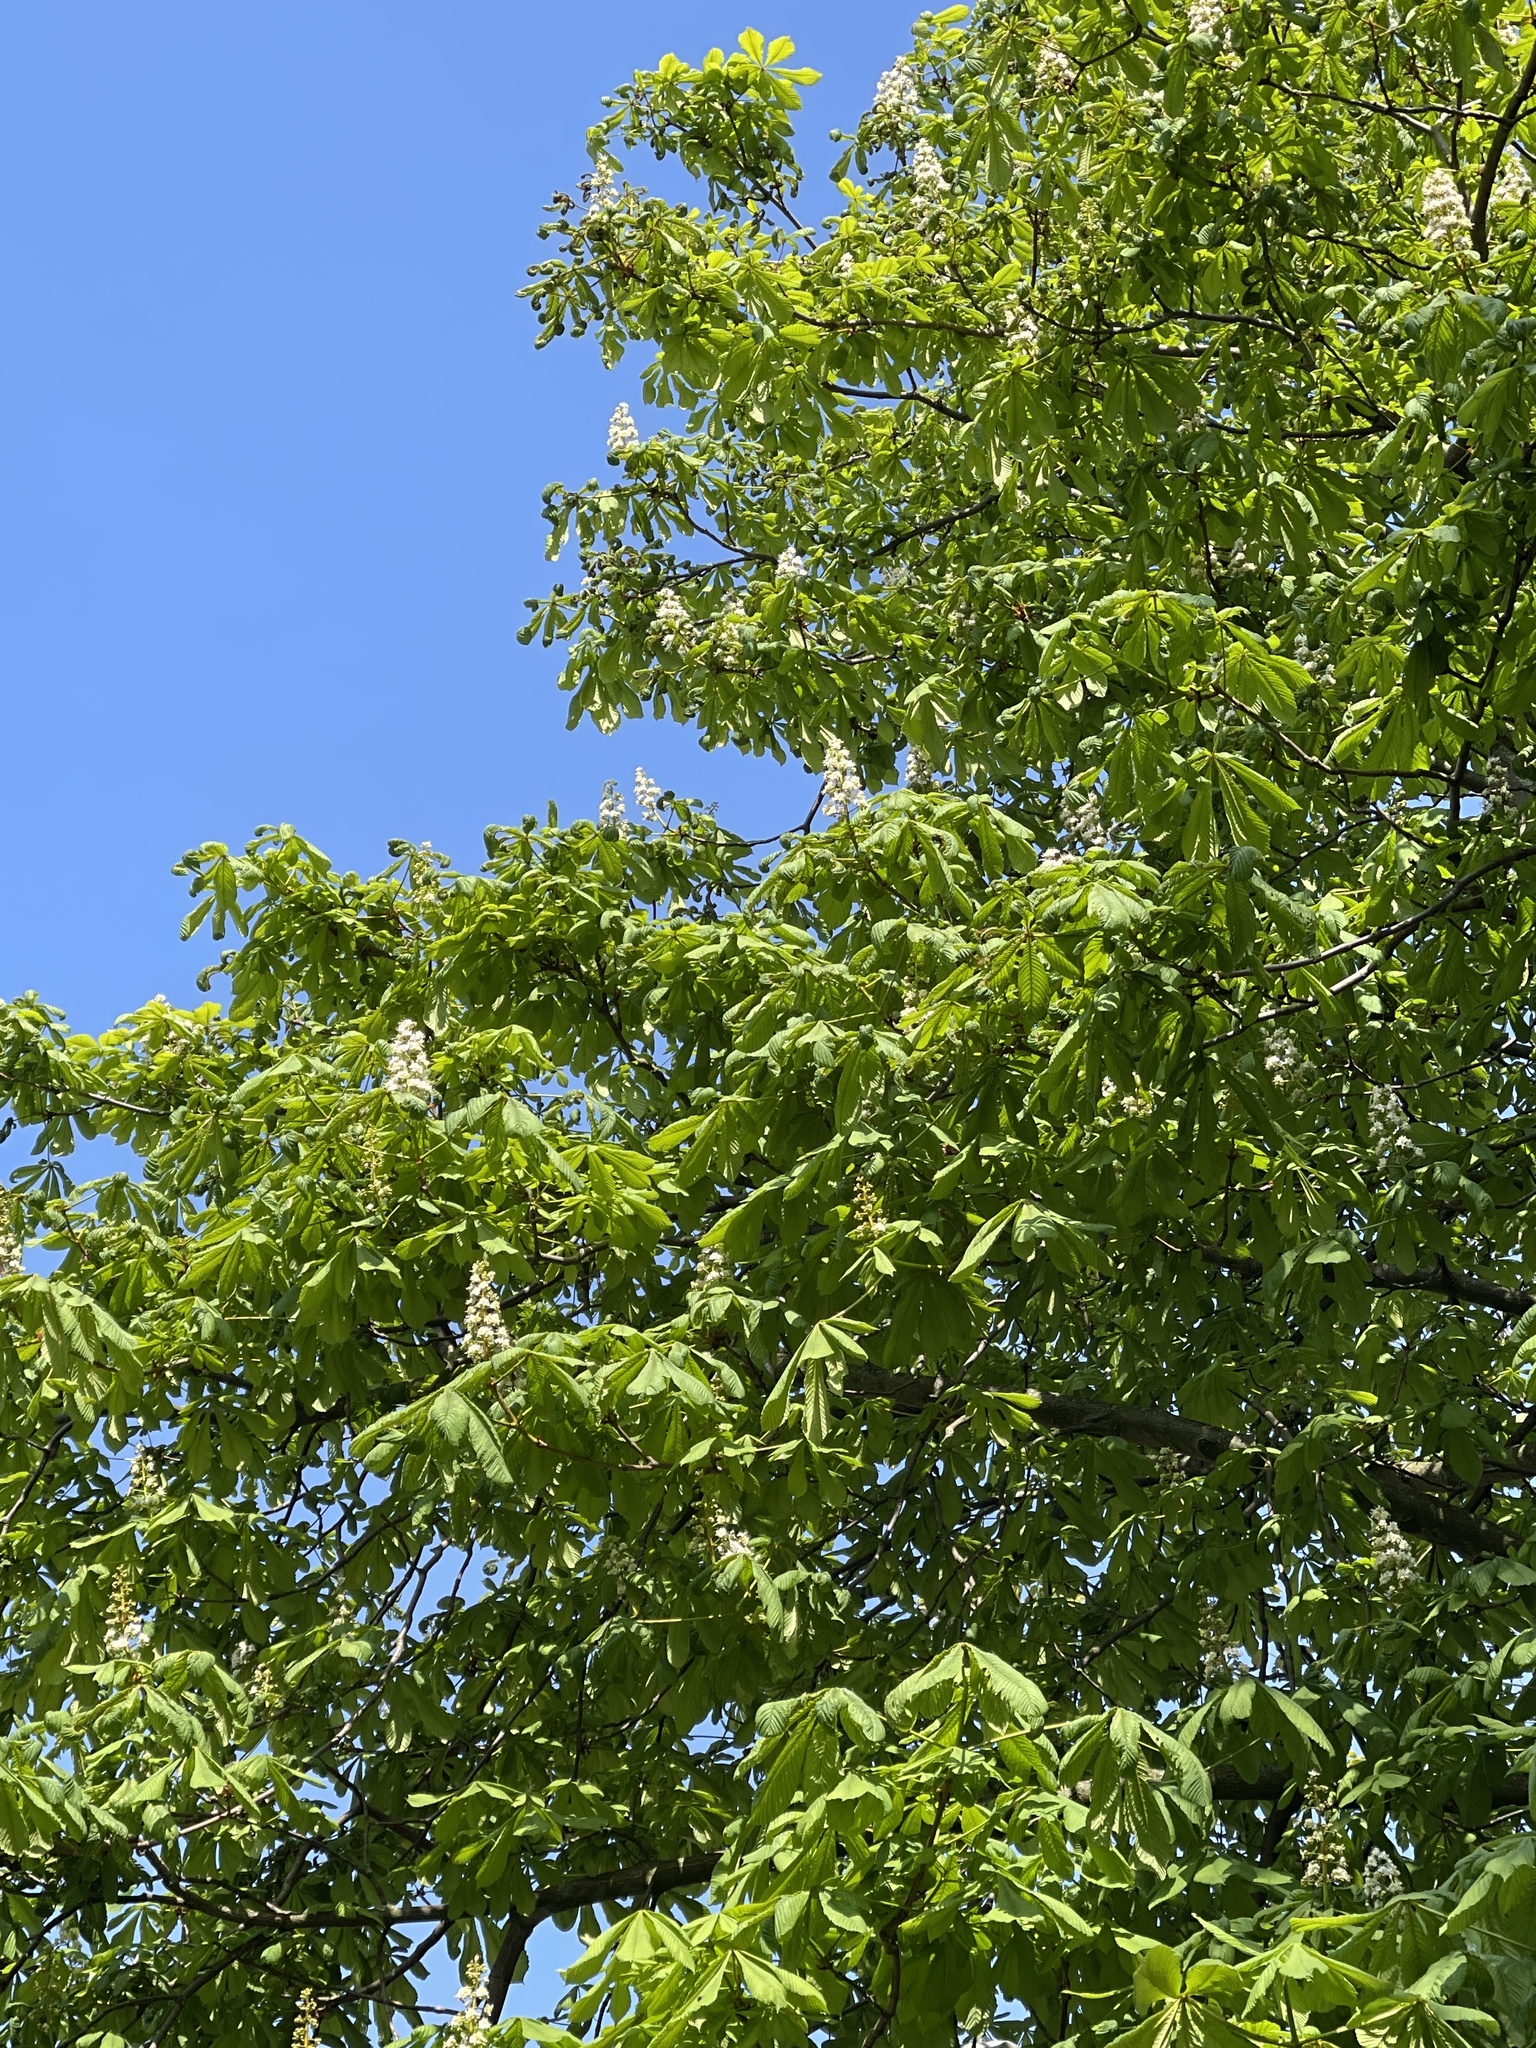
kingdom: Plantae
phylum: Tracheophyta
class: Magnoliopsida
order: Sapindales
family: Sapindaceae
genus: Aesculus
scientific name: Aesculus hippocastanum
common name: Horse-chestnut
